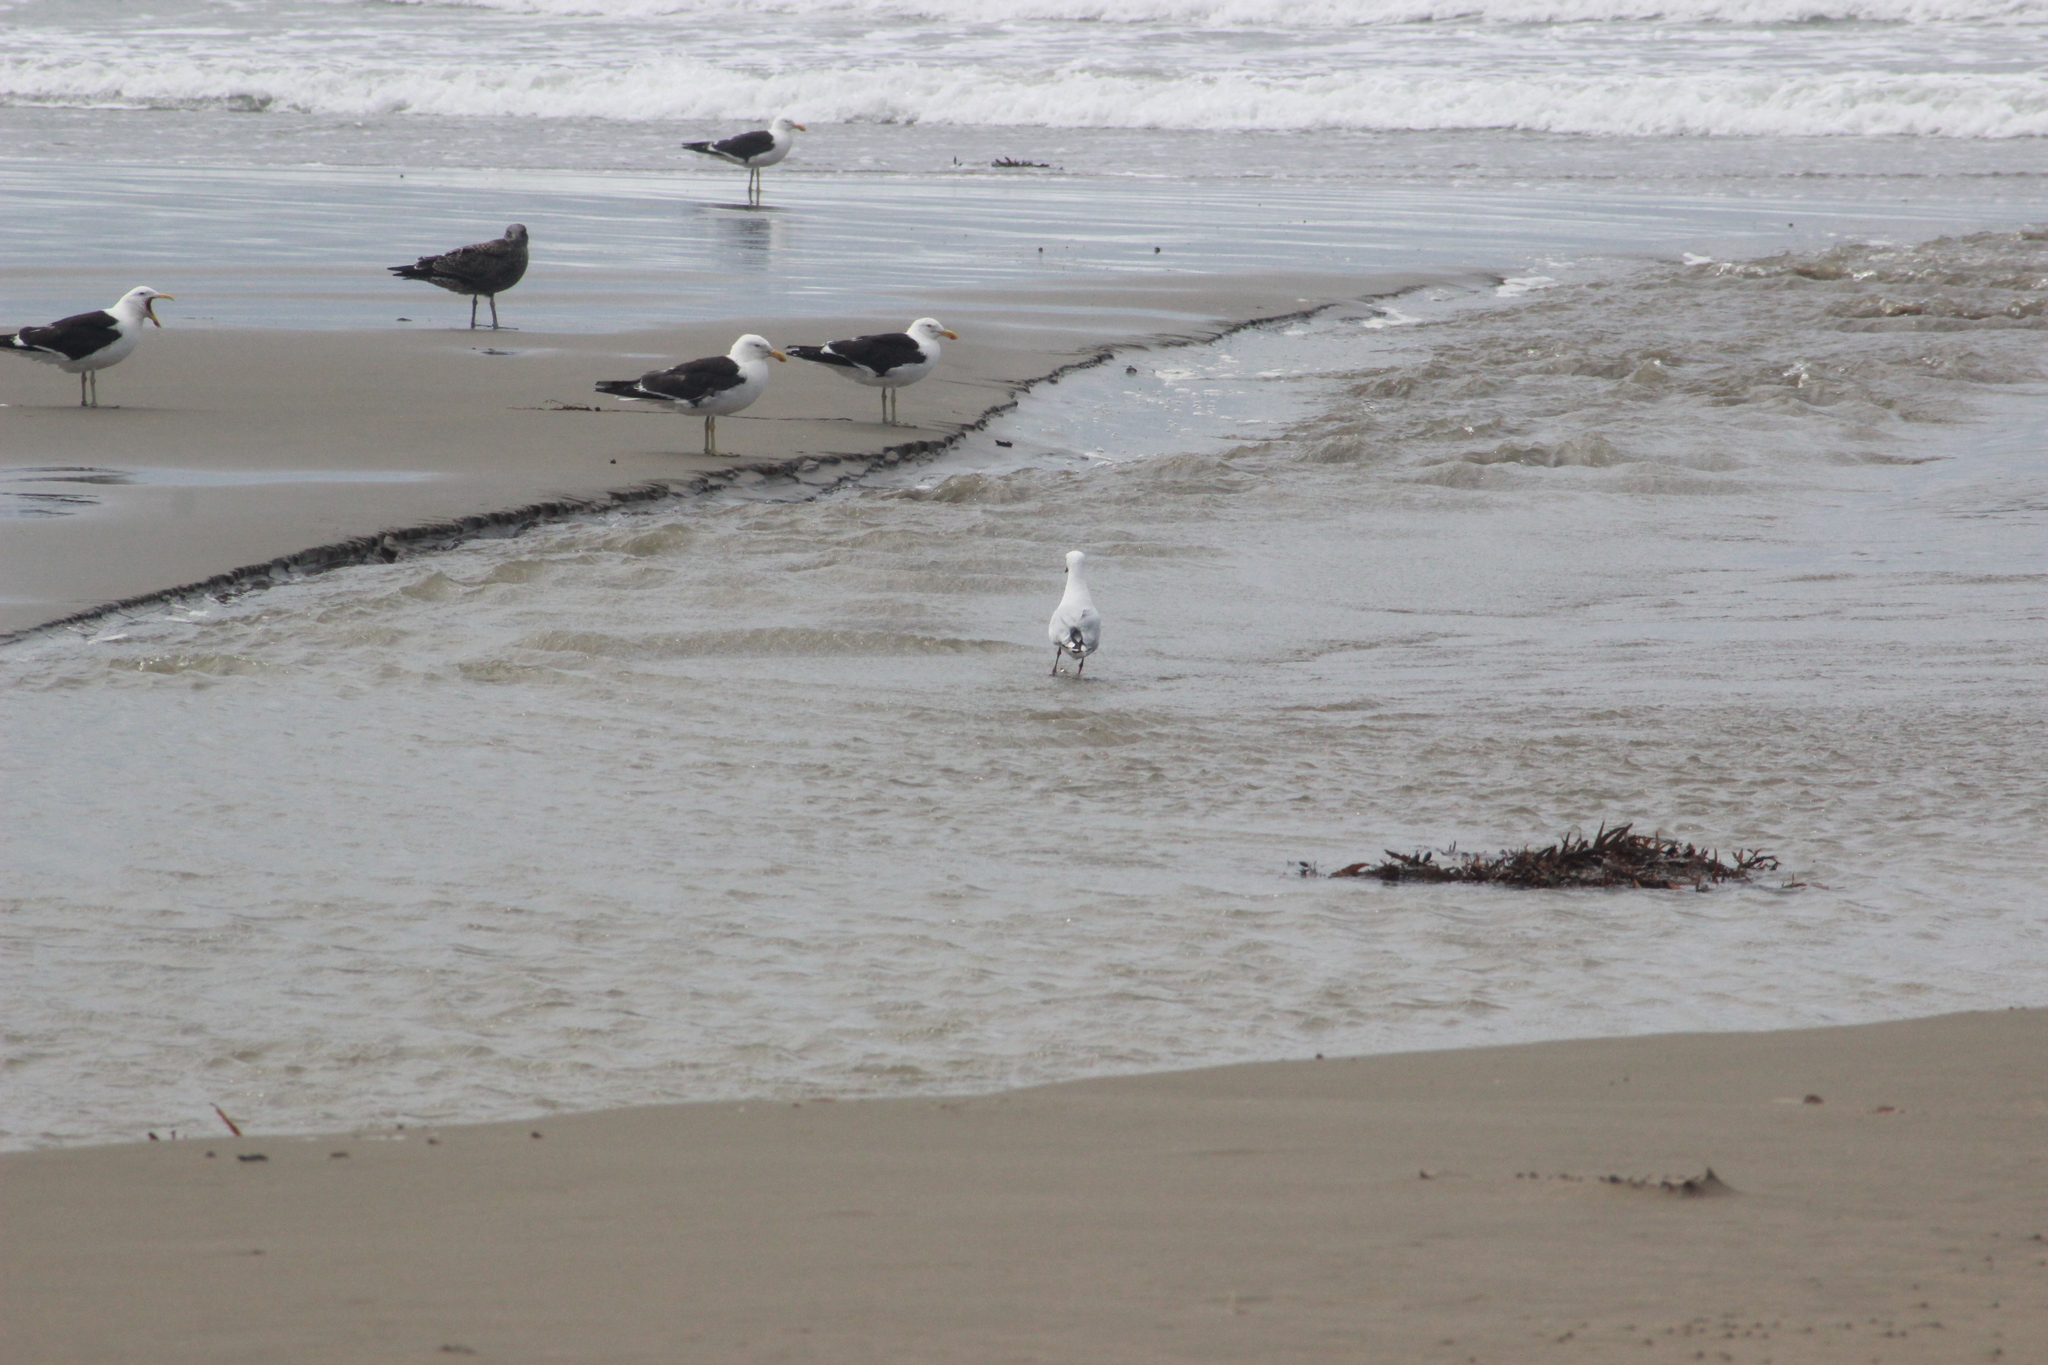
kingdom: Animalia
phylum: Chordata
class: Aves
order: Charadriiformes
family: Laridae
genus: Chroicocephalus
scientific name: Chroicocephalus bulleri
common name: Black-billed gull
